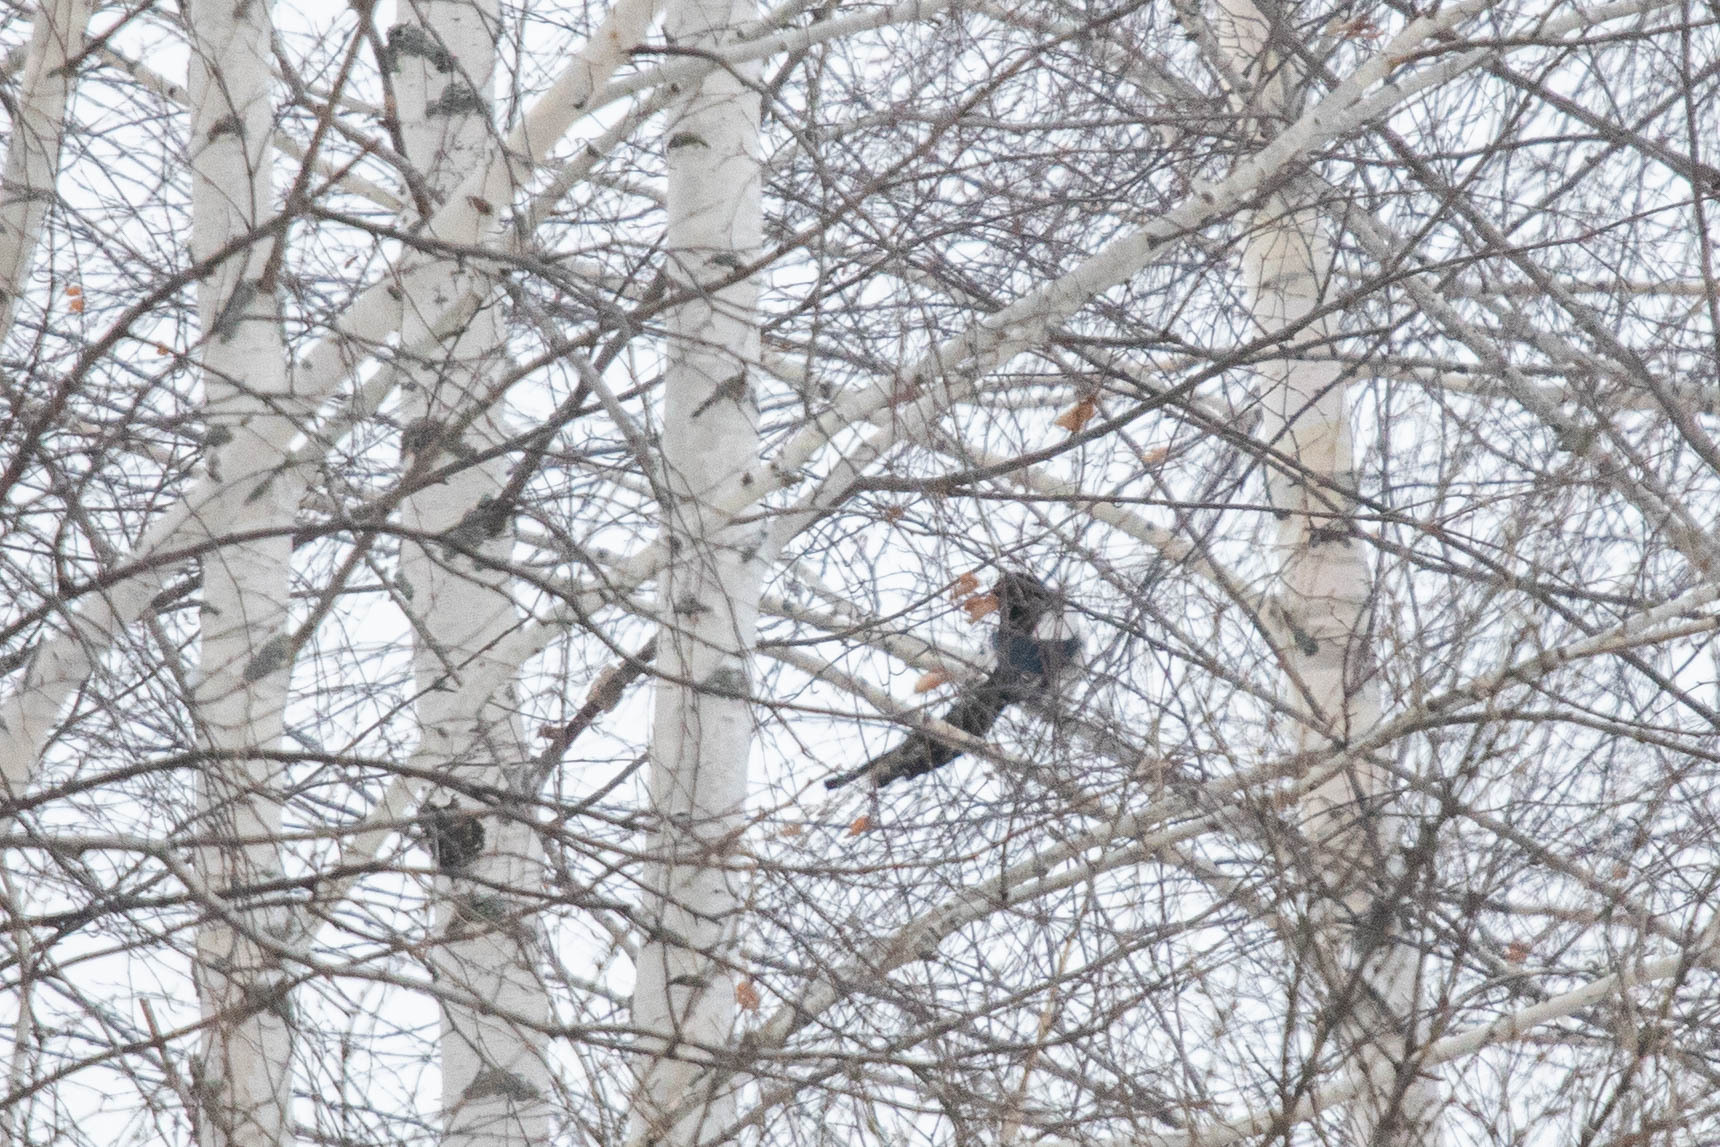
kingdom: Animalia
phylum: Chordata
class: Aves
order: Passeriformes
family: Corvidae
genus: Pica
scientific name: Pica pica
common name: Eurasian magpie
